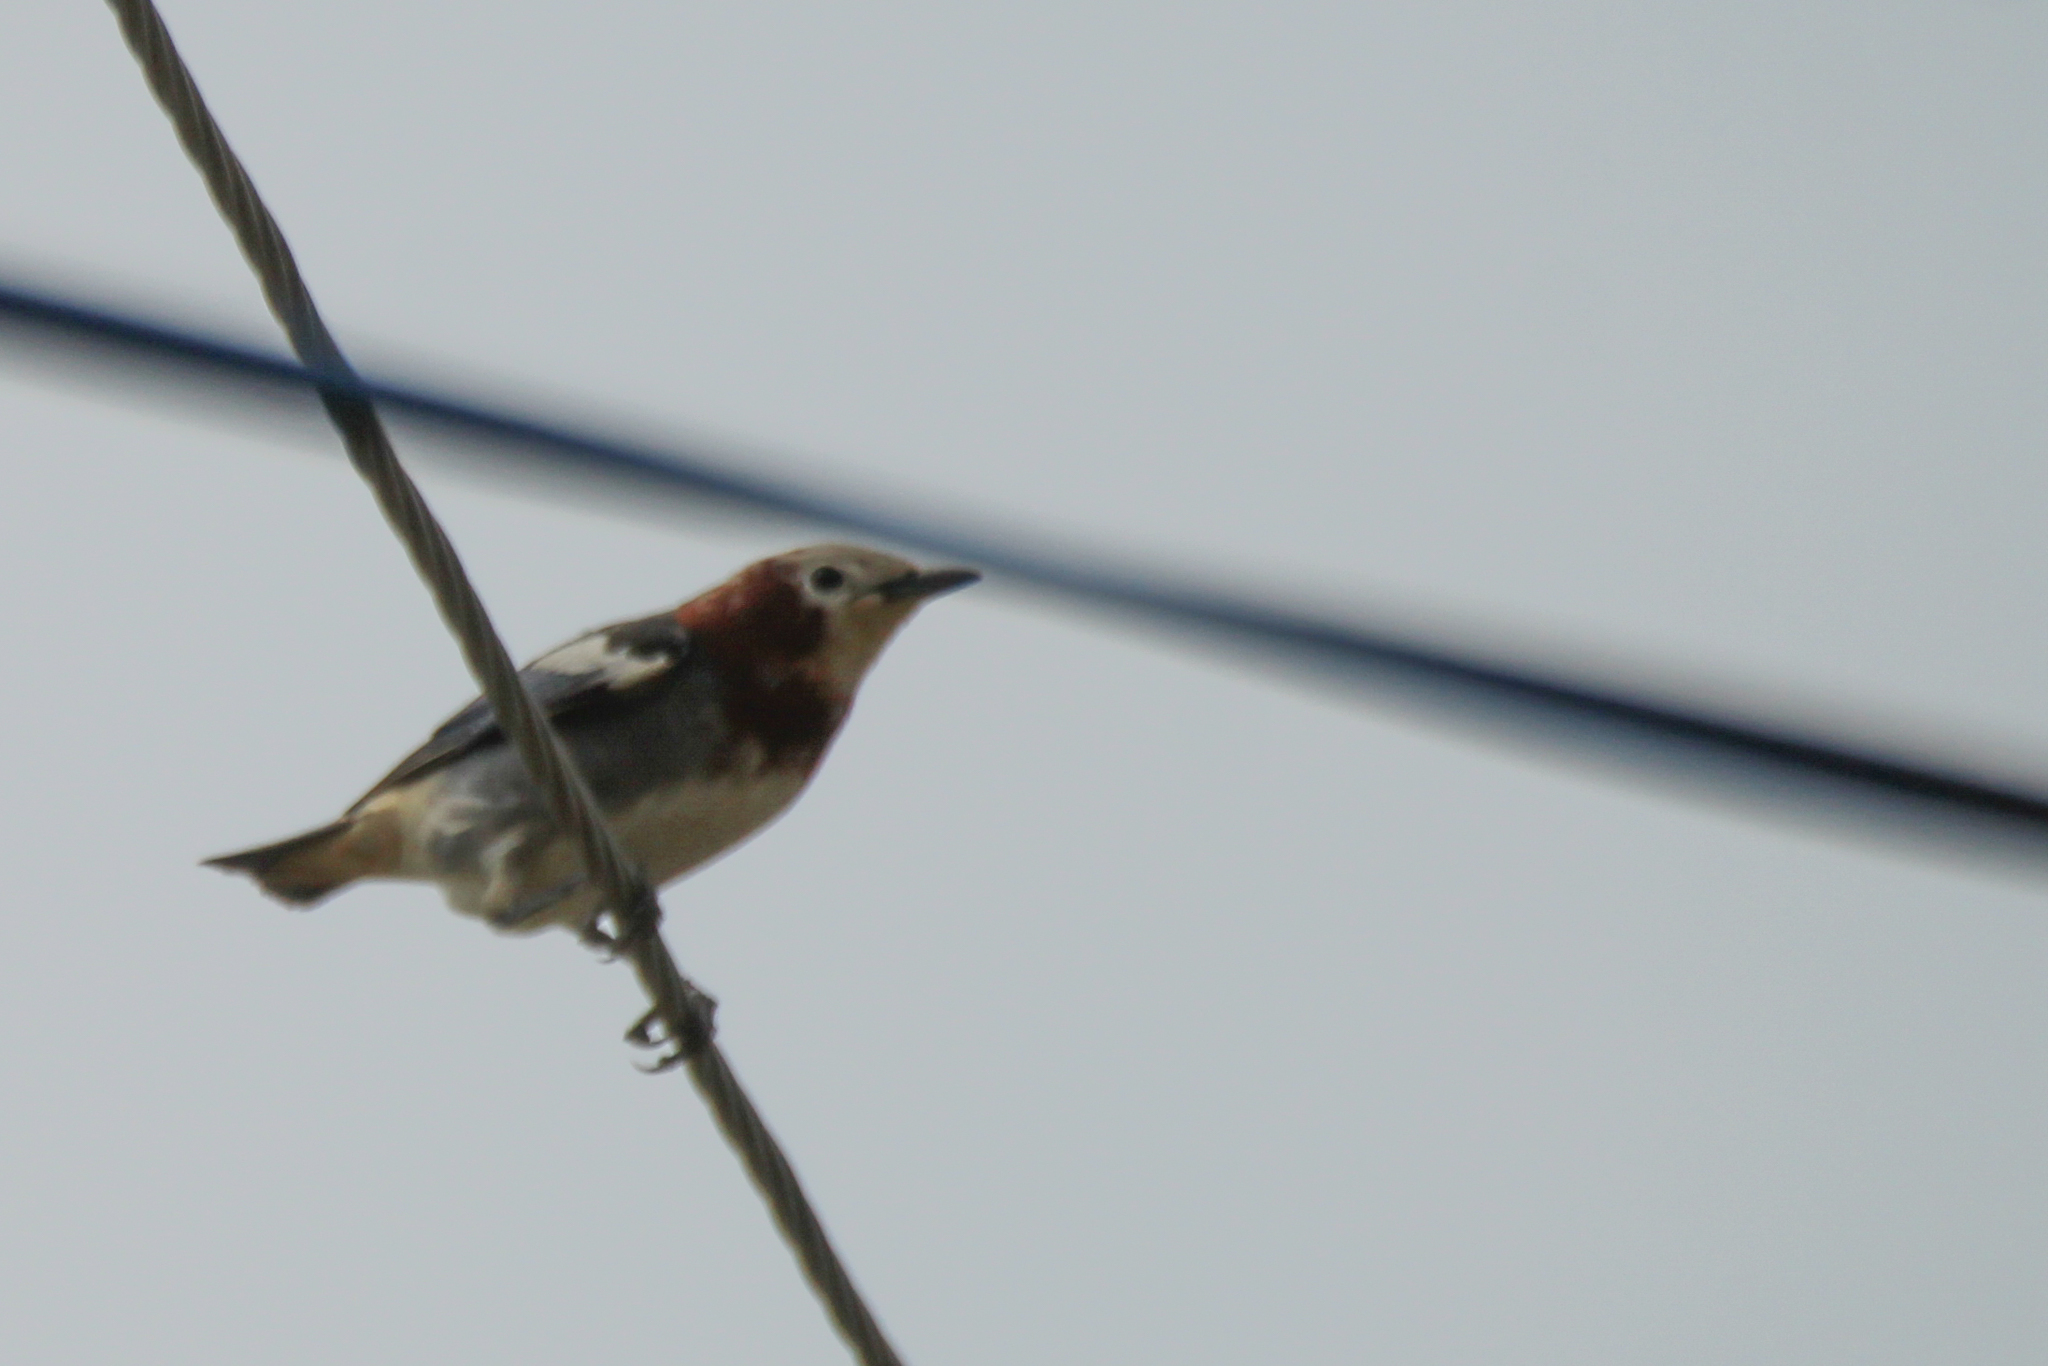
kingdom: Animalia
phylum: Chordata
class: Aves
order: Passeriformes
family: Sturnidae
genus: Agropsar
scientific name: Agropsar philippensis
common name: Chestnut-cheeked starling
